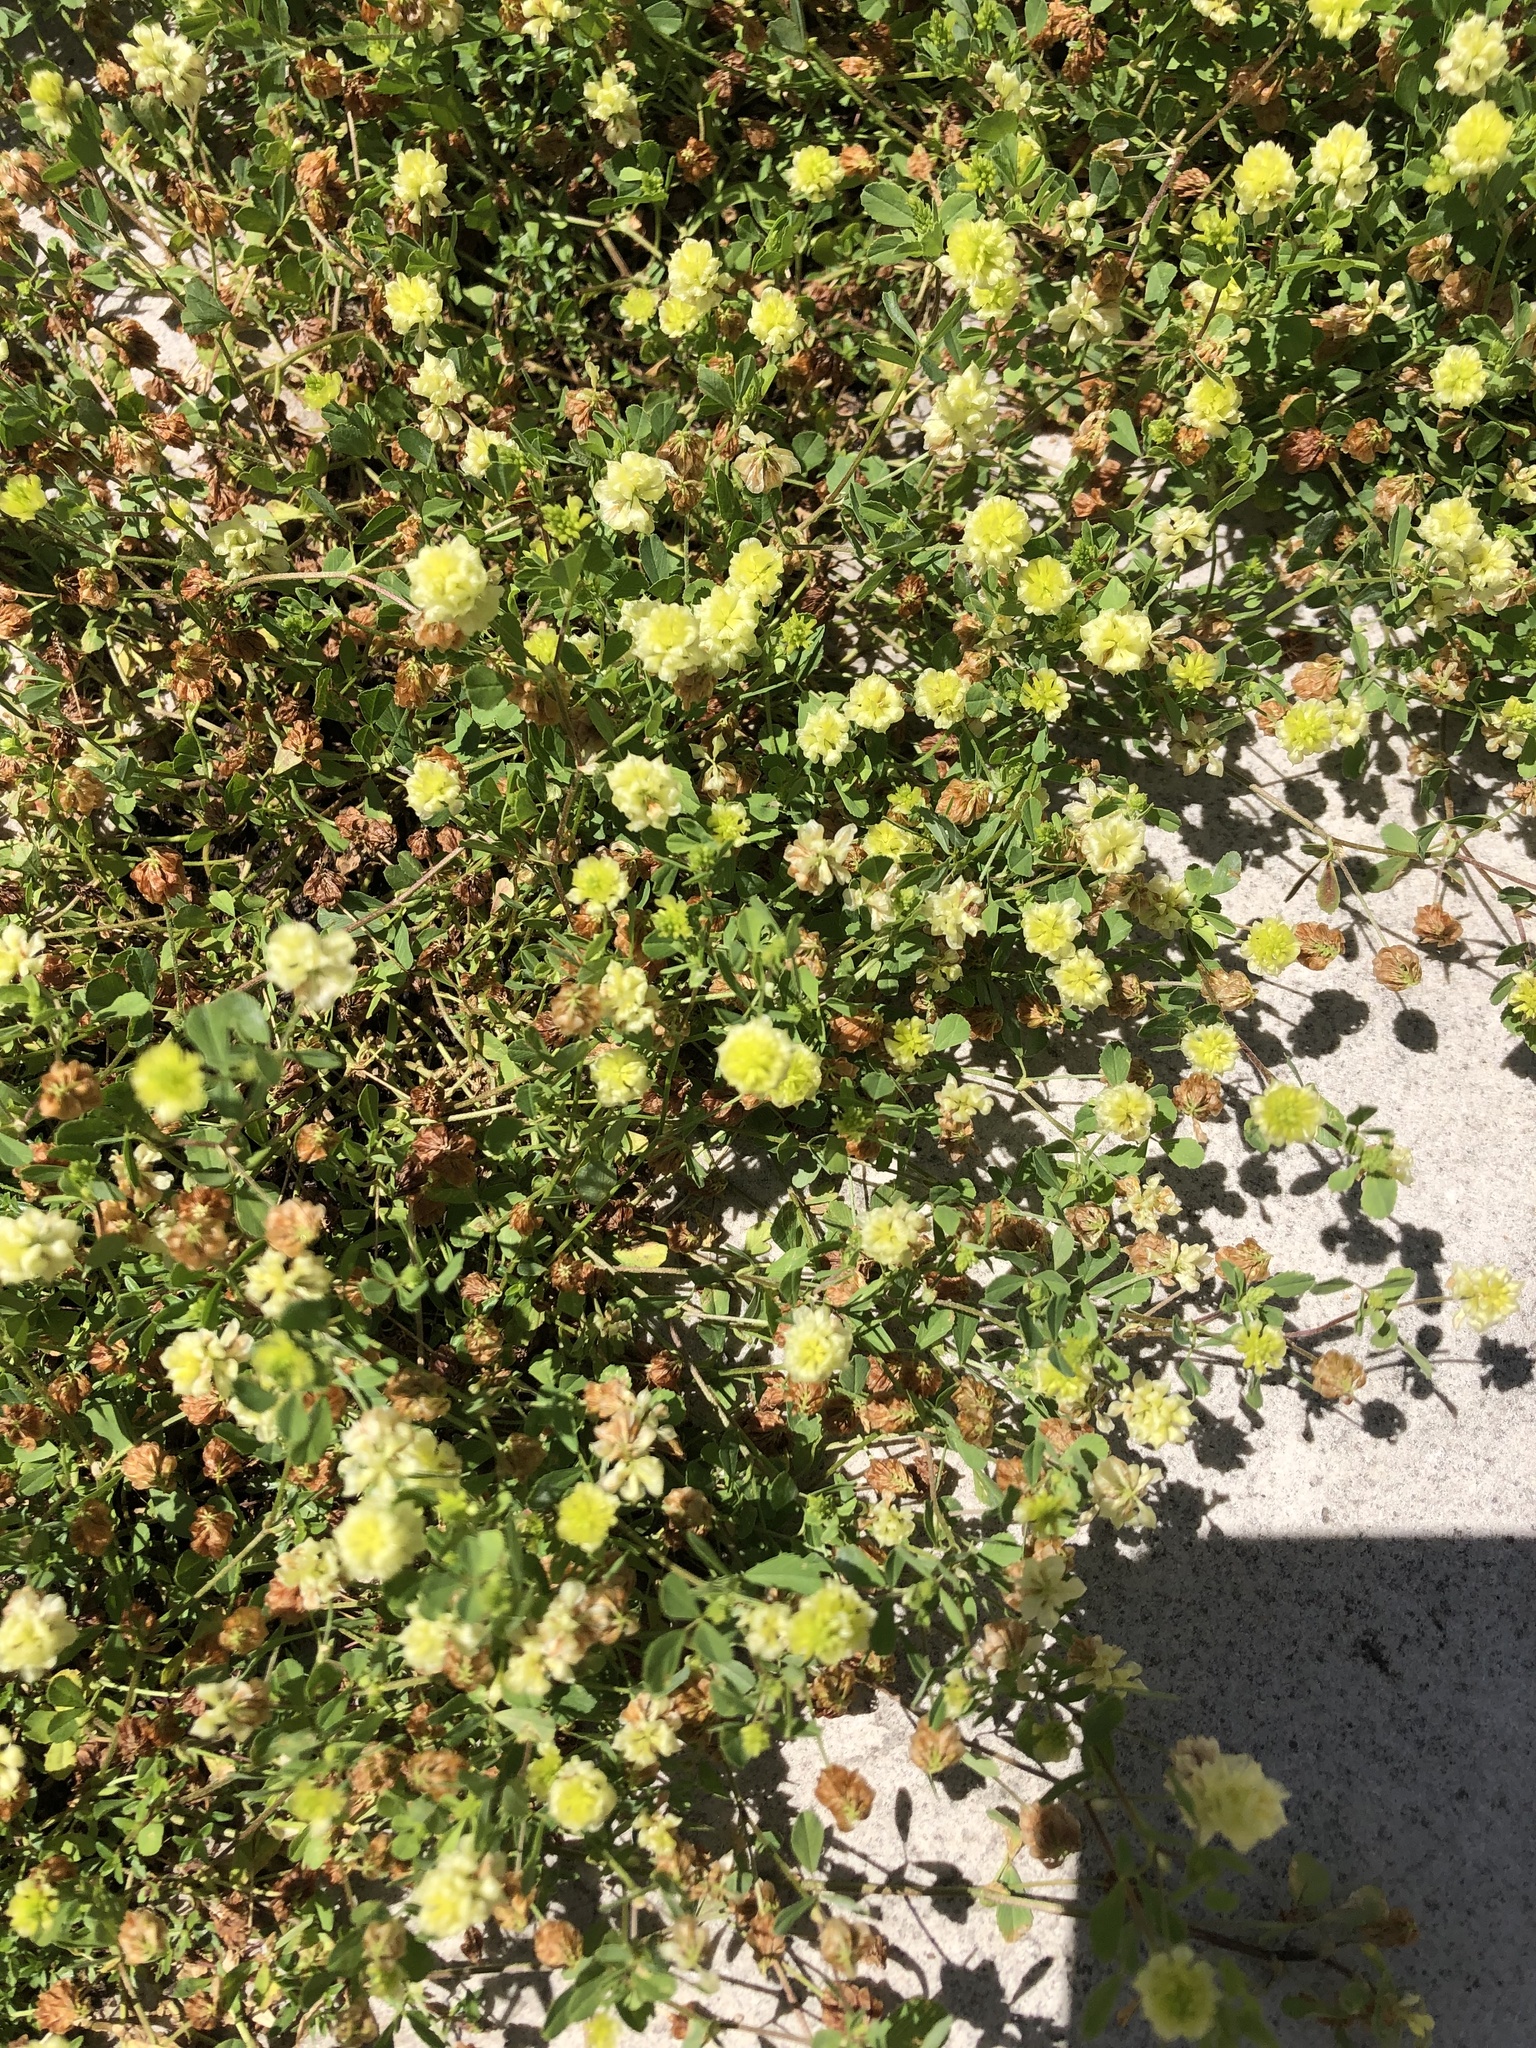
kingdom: Plantae
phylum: Tracheophyta
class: Magnoliopsida
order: Fabales
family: Fabaceae
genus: Trifolium
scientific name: Trifolium campestre
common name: Field clover
